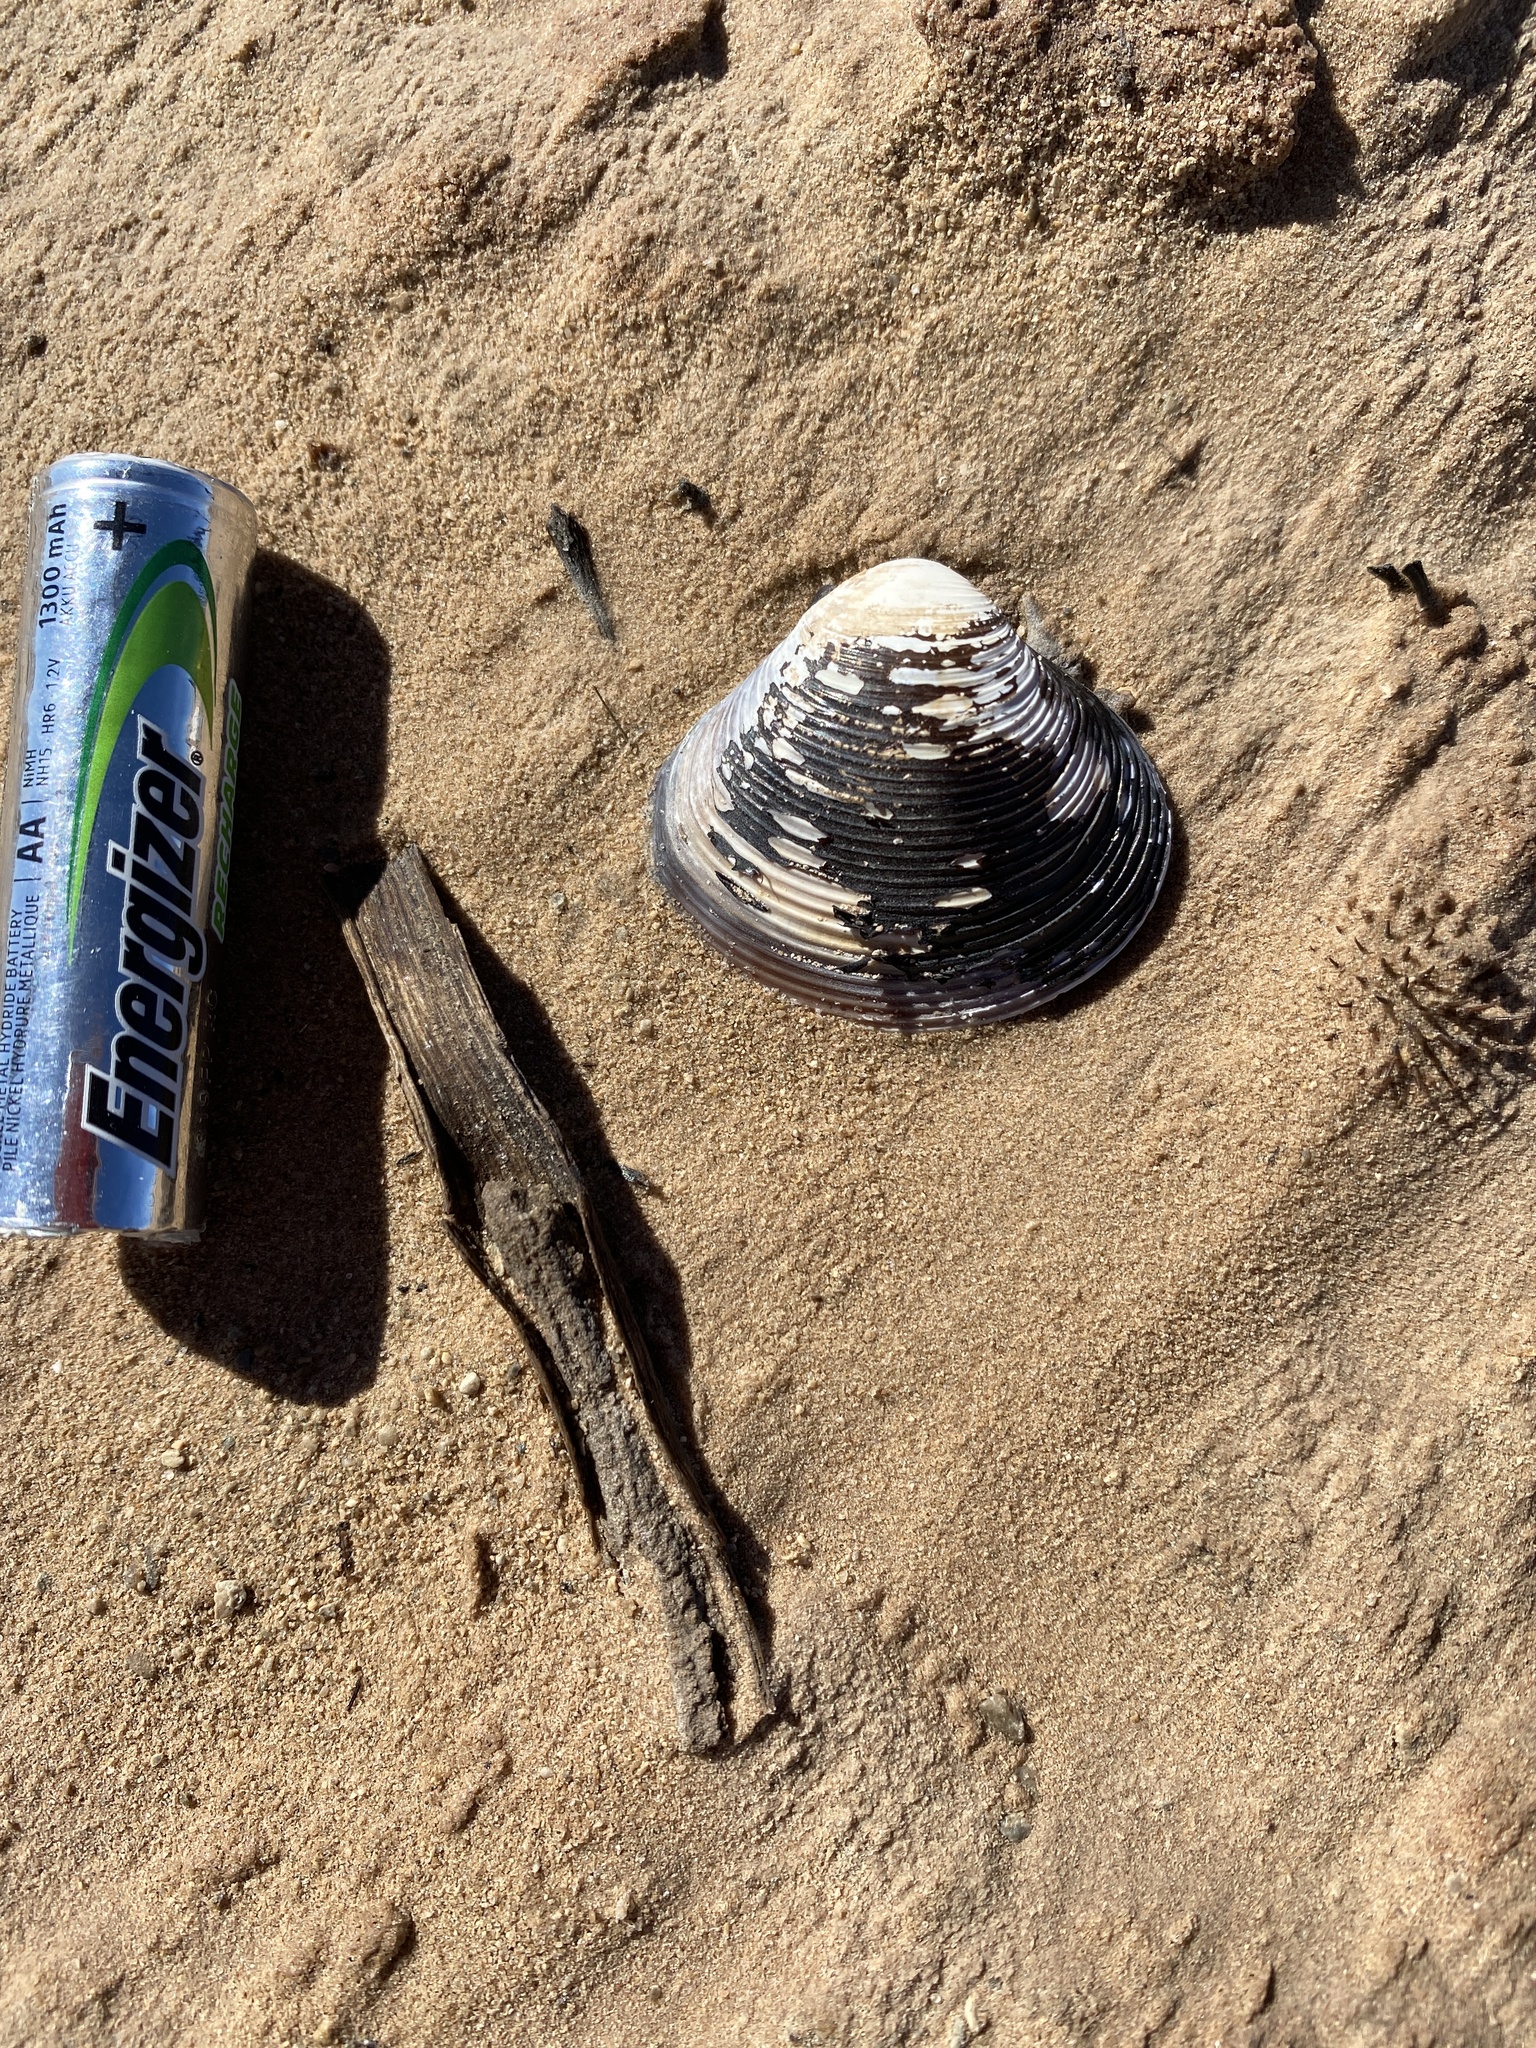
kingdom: Animalia
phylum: Mollusca
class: Bivalvia
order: Venerida
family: Cyrenidae
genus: Corbicula
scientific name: Corbicula fluminea
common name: Asian clam
